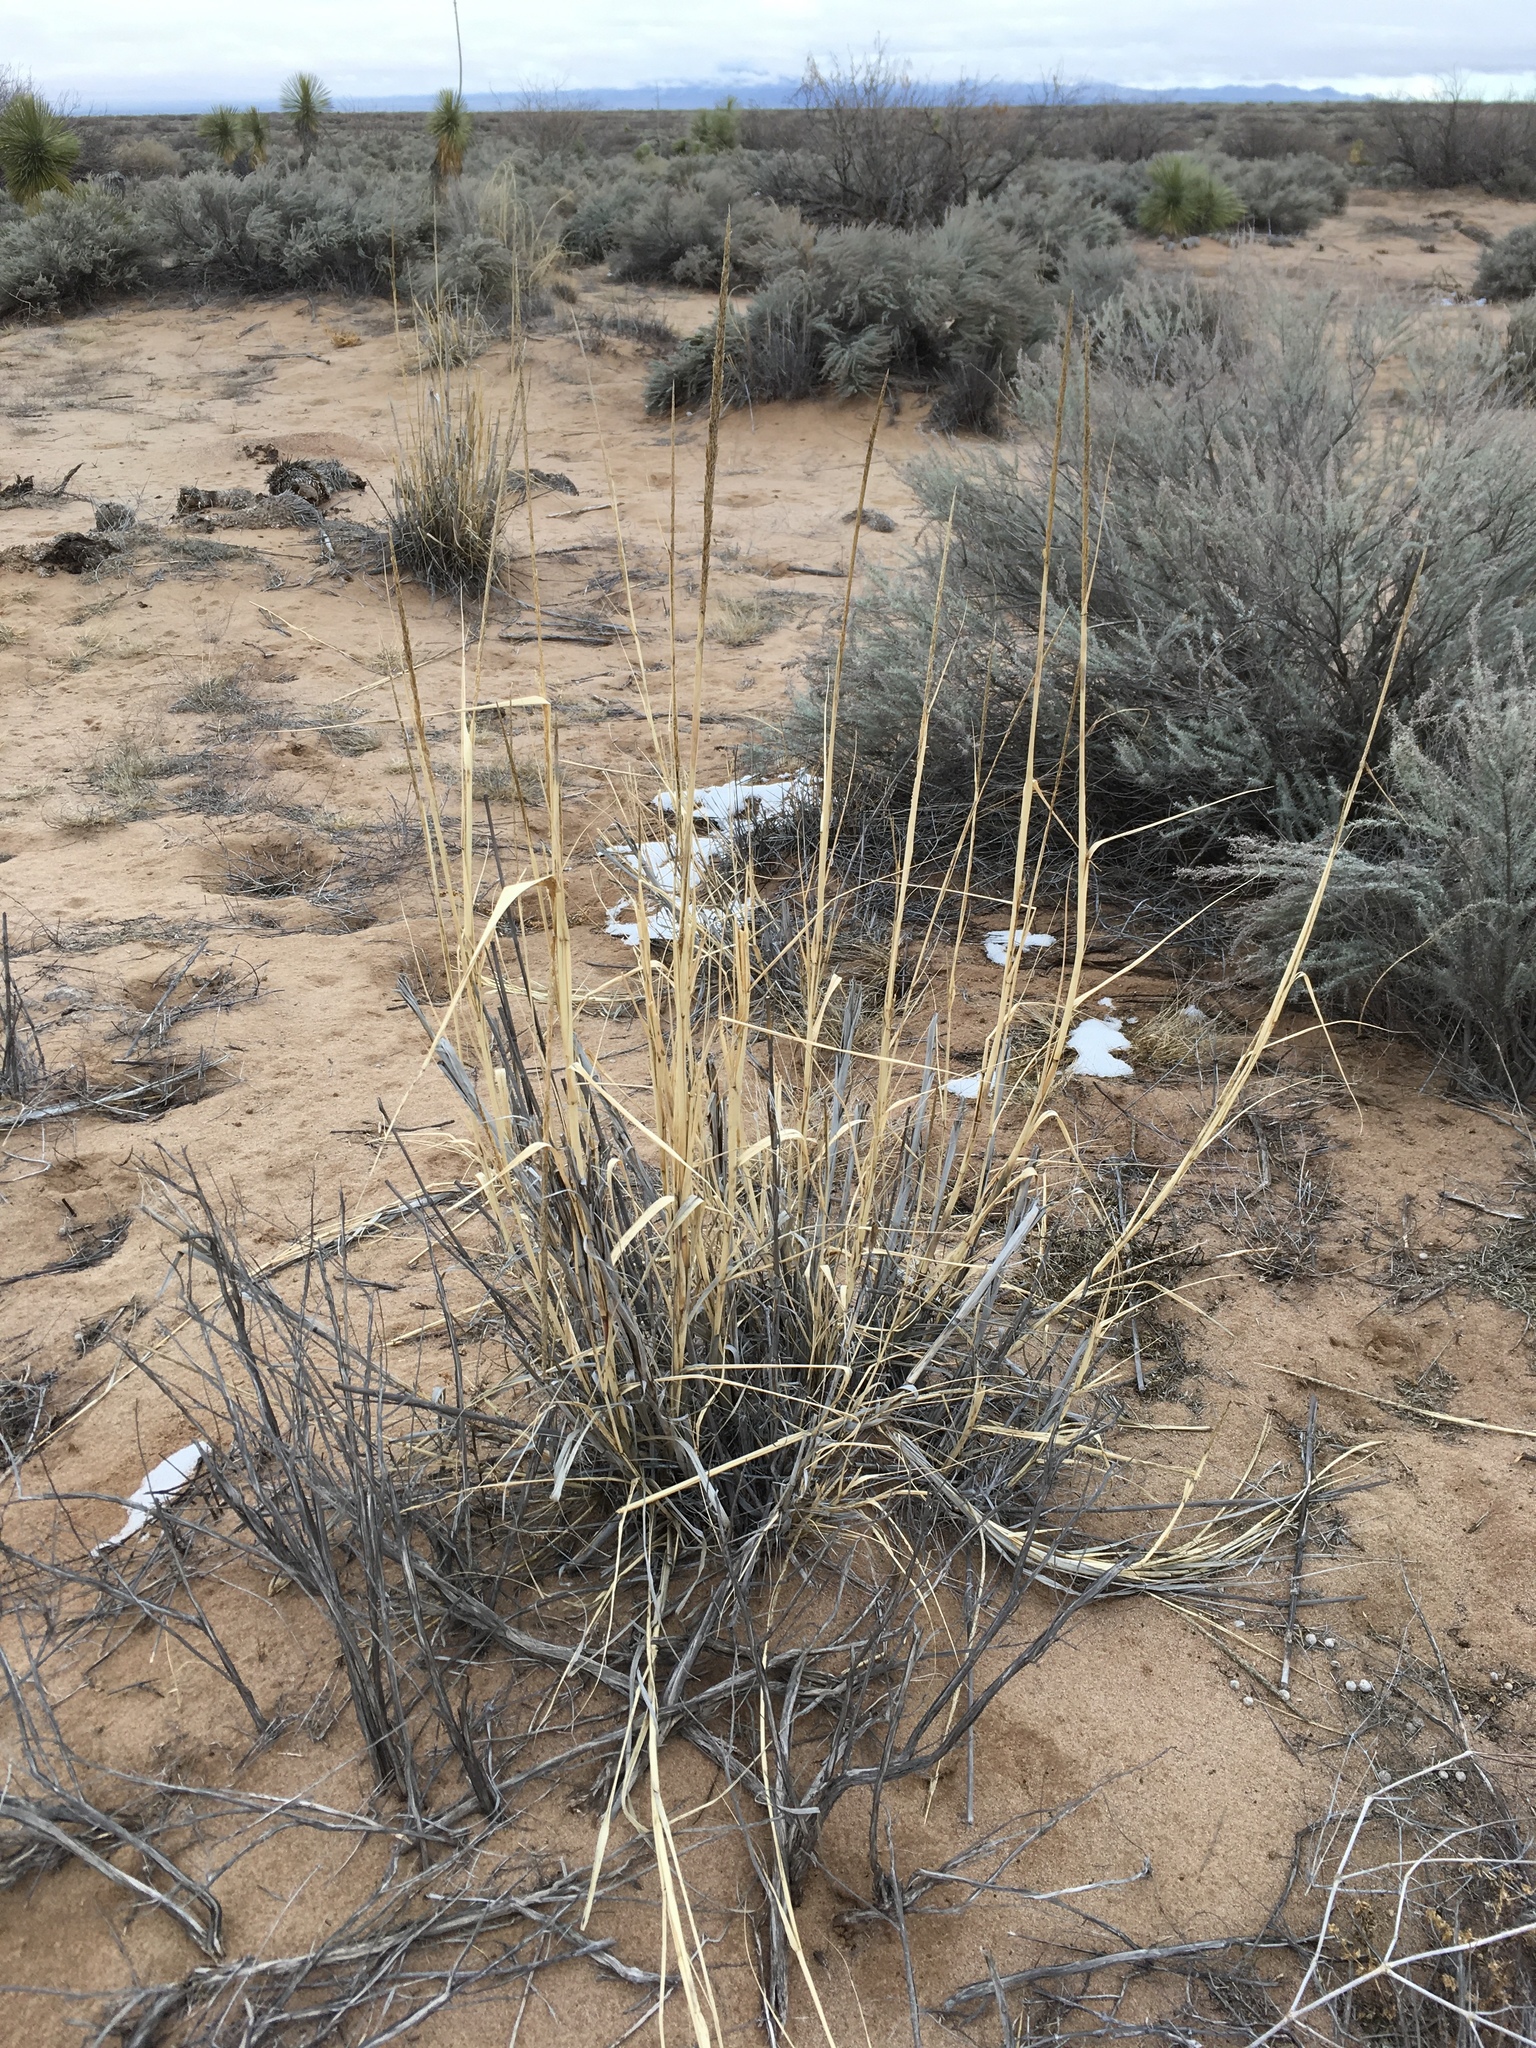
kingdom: Plantae
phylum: Tracheophyta
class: Liliopsida
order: Poales
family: Poaceae
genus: Sporobolus
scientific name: Sporobolus giganteus
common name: Giant dropseed
